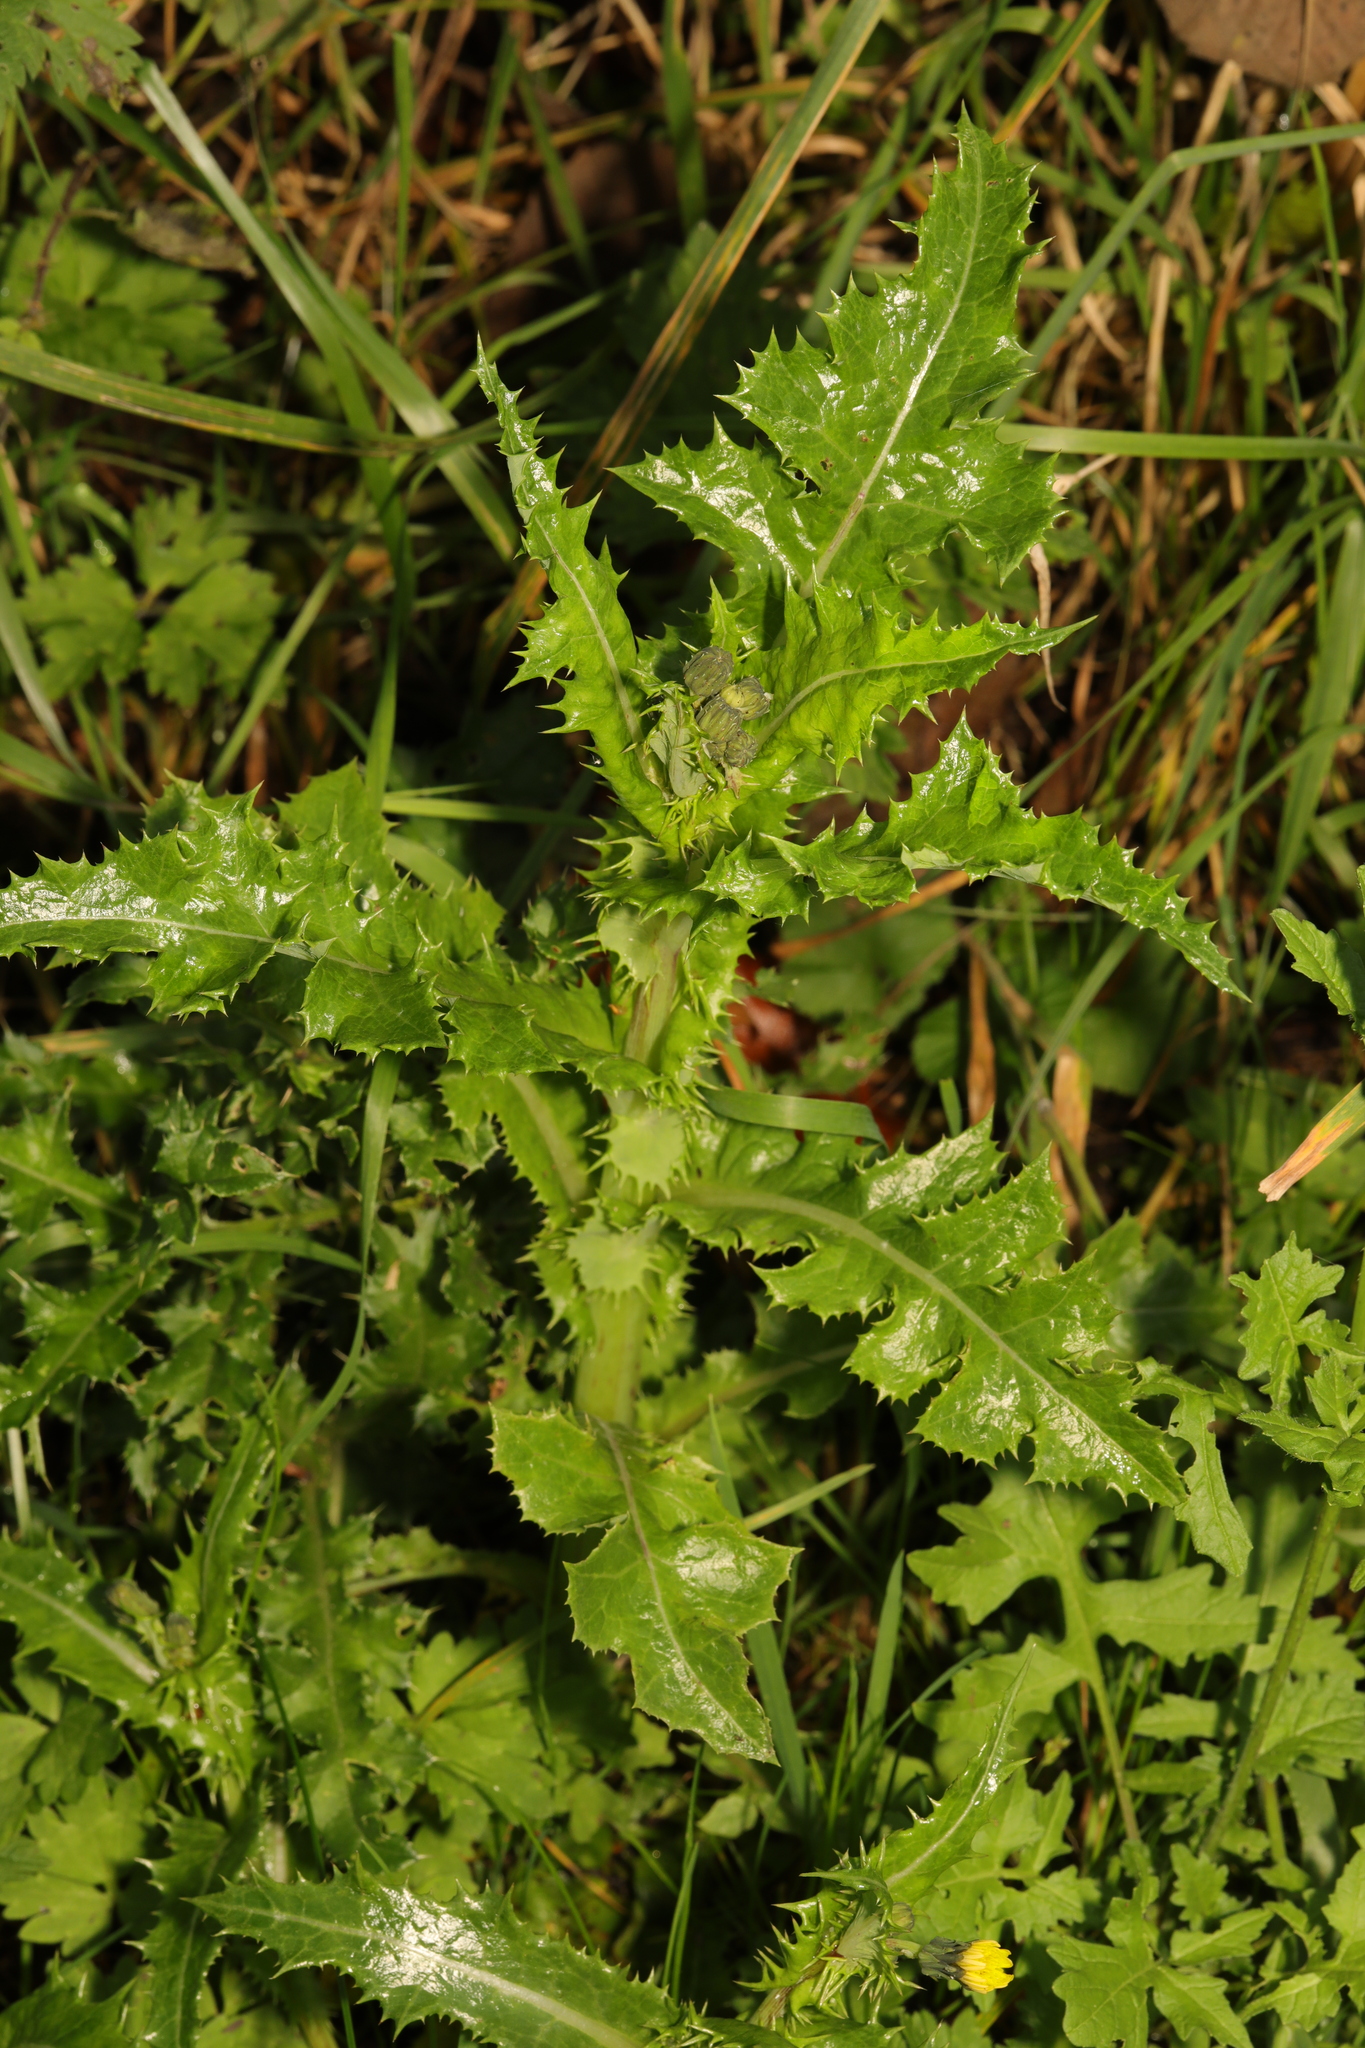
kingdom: Plantae
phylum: Tracheophyta
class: Magnoliopsida
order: Asterales
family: Asteraceae
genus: Sonchus
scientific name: Sonchus asper
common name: Prickly sow-thistle
